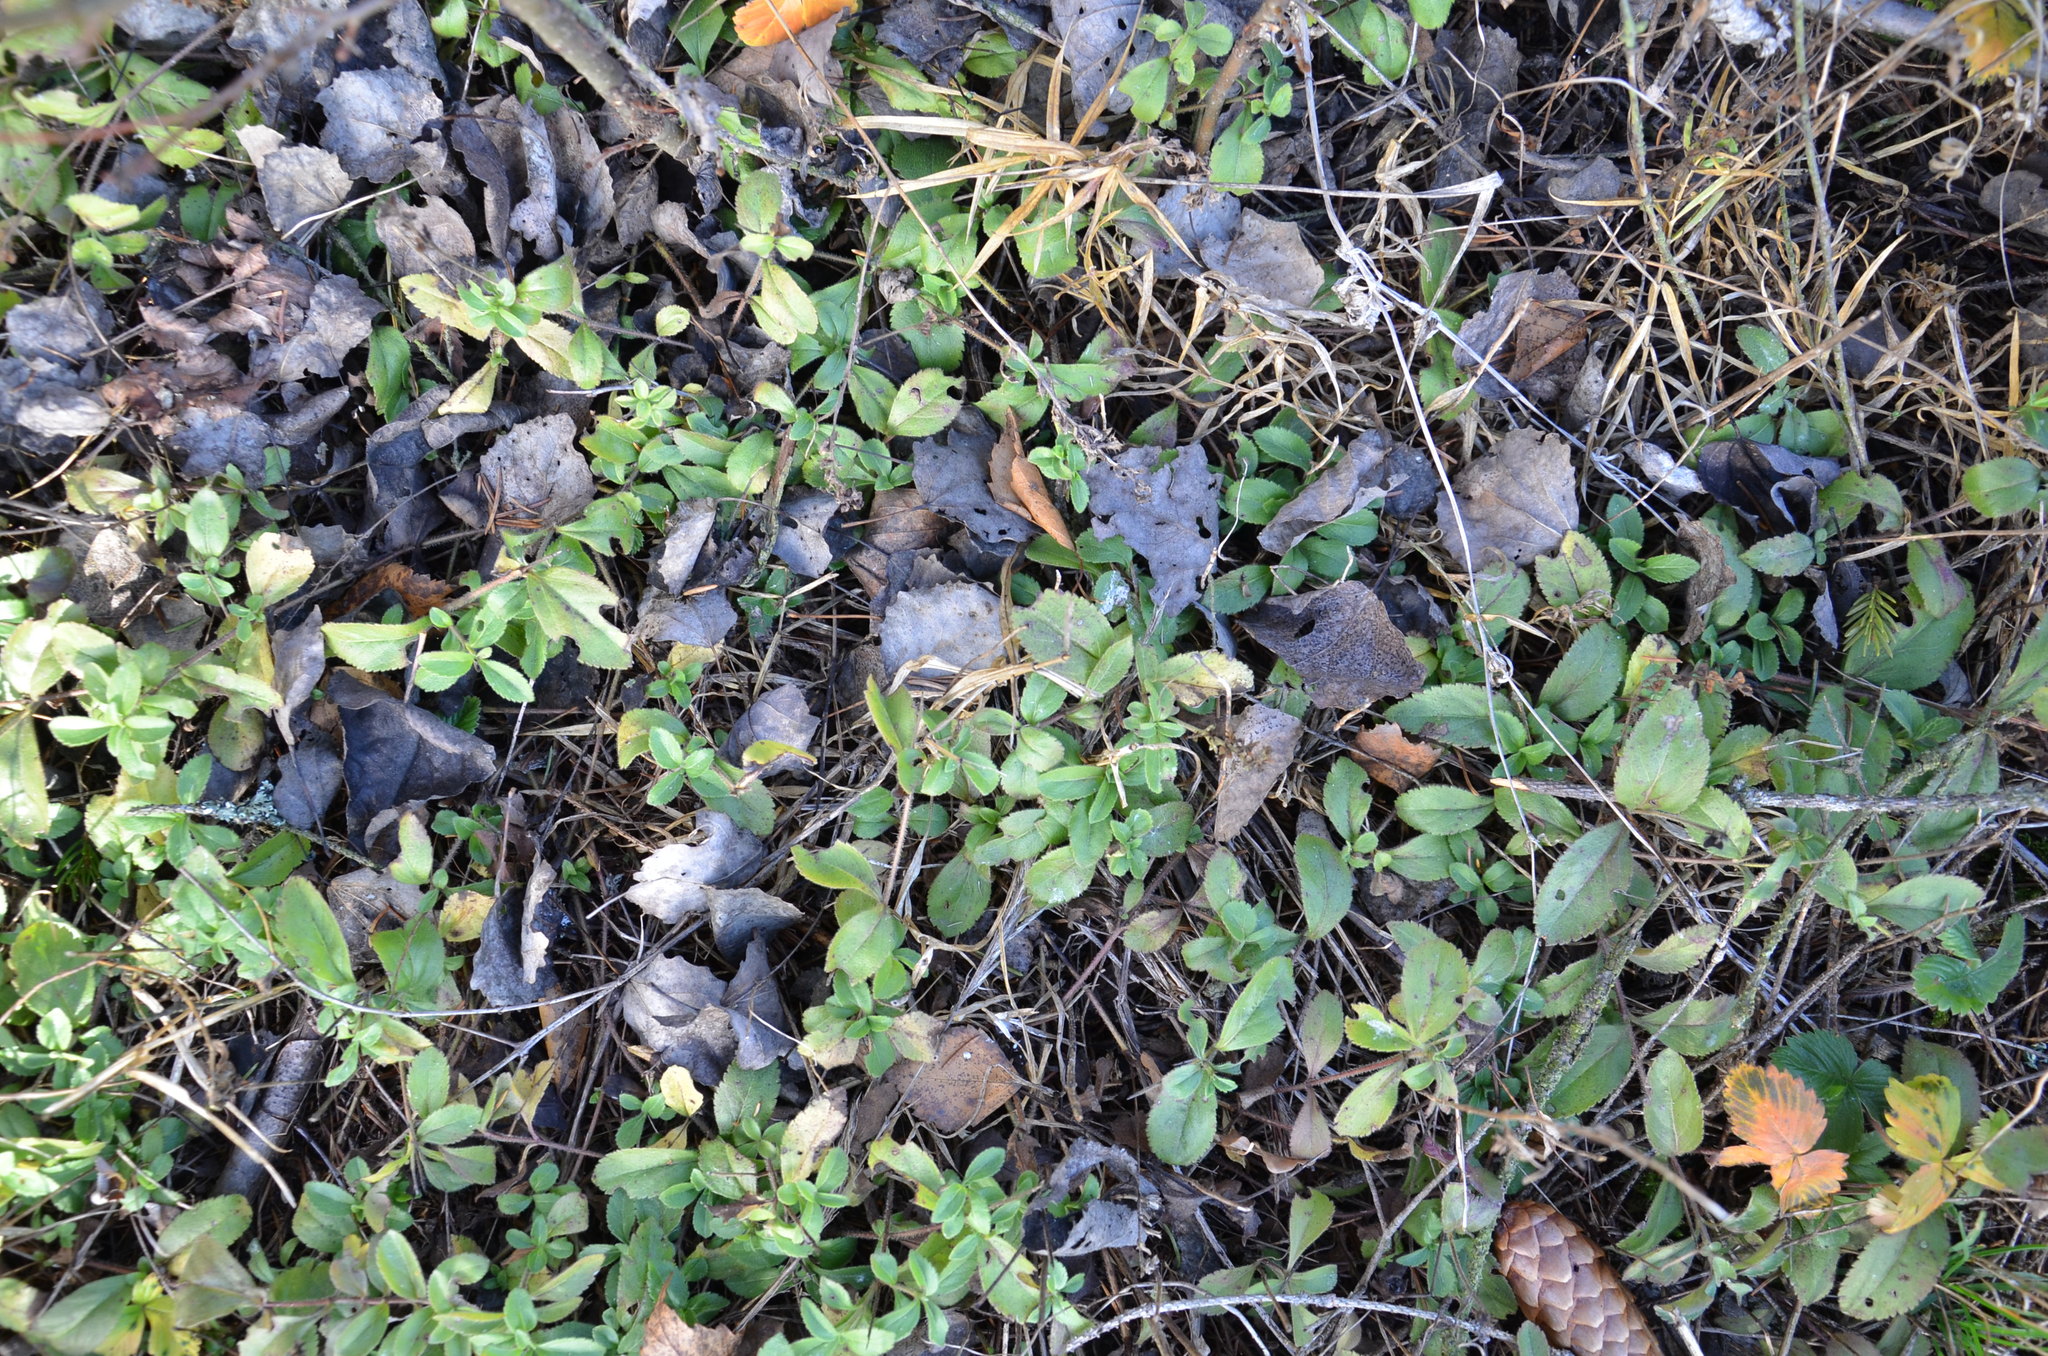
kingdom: Plantae
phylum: Tracheophyta
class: Magnoliopsida
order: Lamiales
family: Plantaginaceae
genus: Veronica
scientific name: Veronica officinalis
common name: Common speedwell
